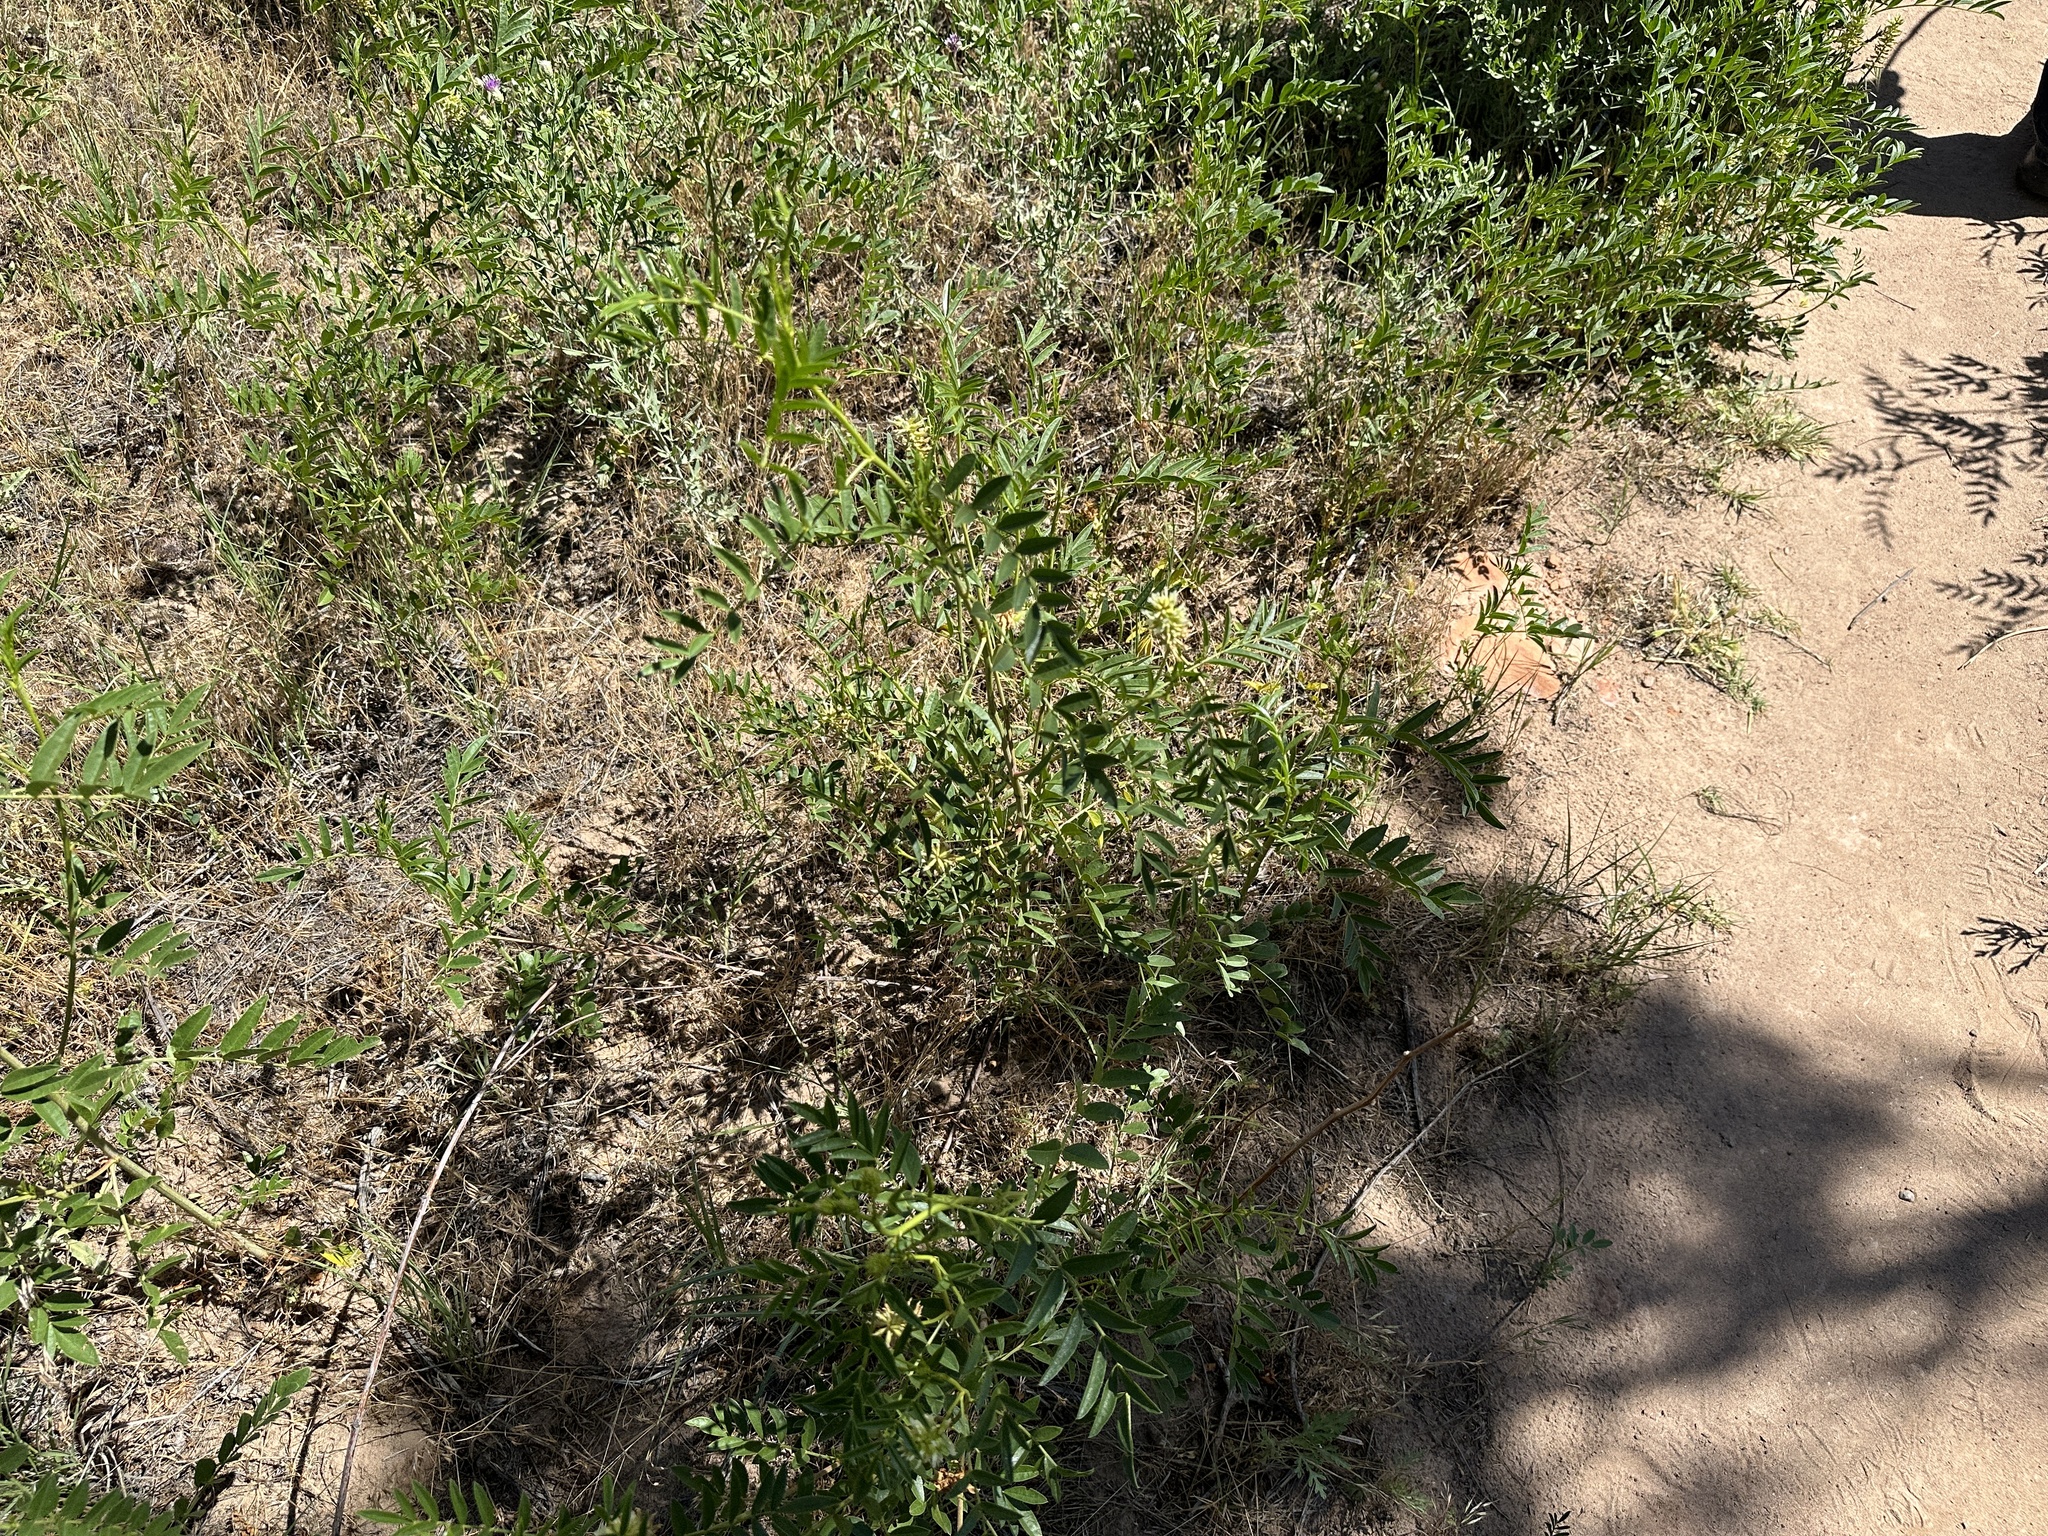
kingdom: Plantae
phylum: Tracheophyta
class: Magnoliopsida
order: Fabales
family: Fabaceae
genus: Glycyrrhiza
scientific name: Glycyrrhiza lepidota
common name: American liquorice
